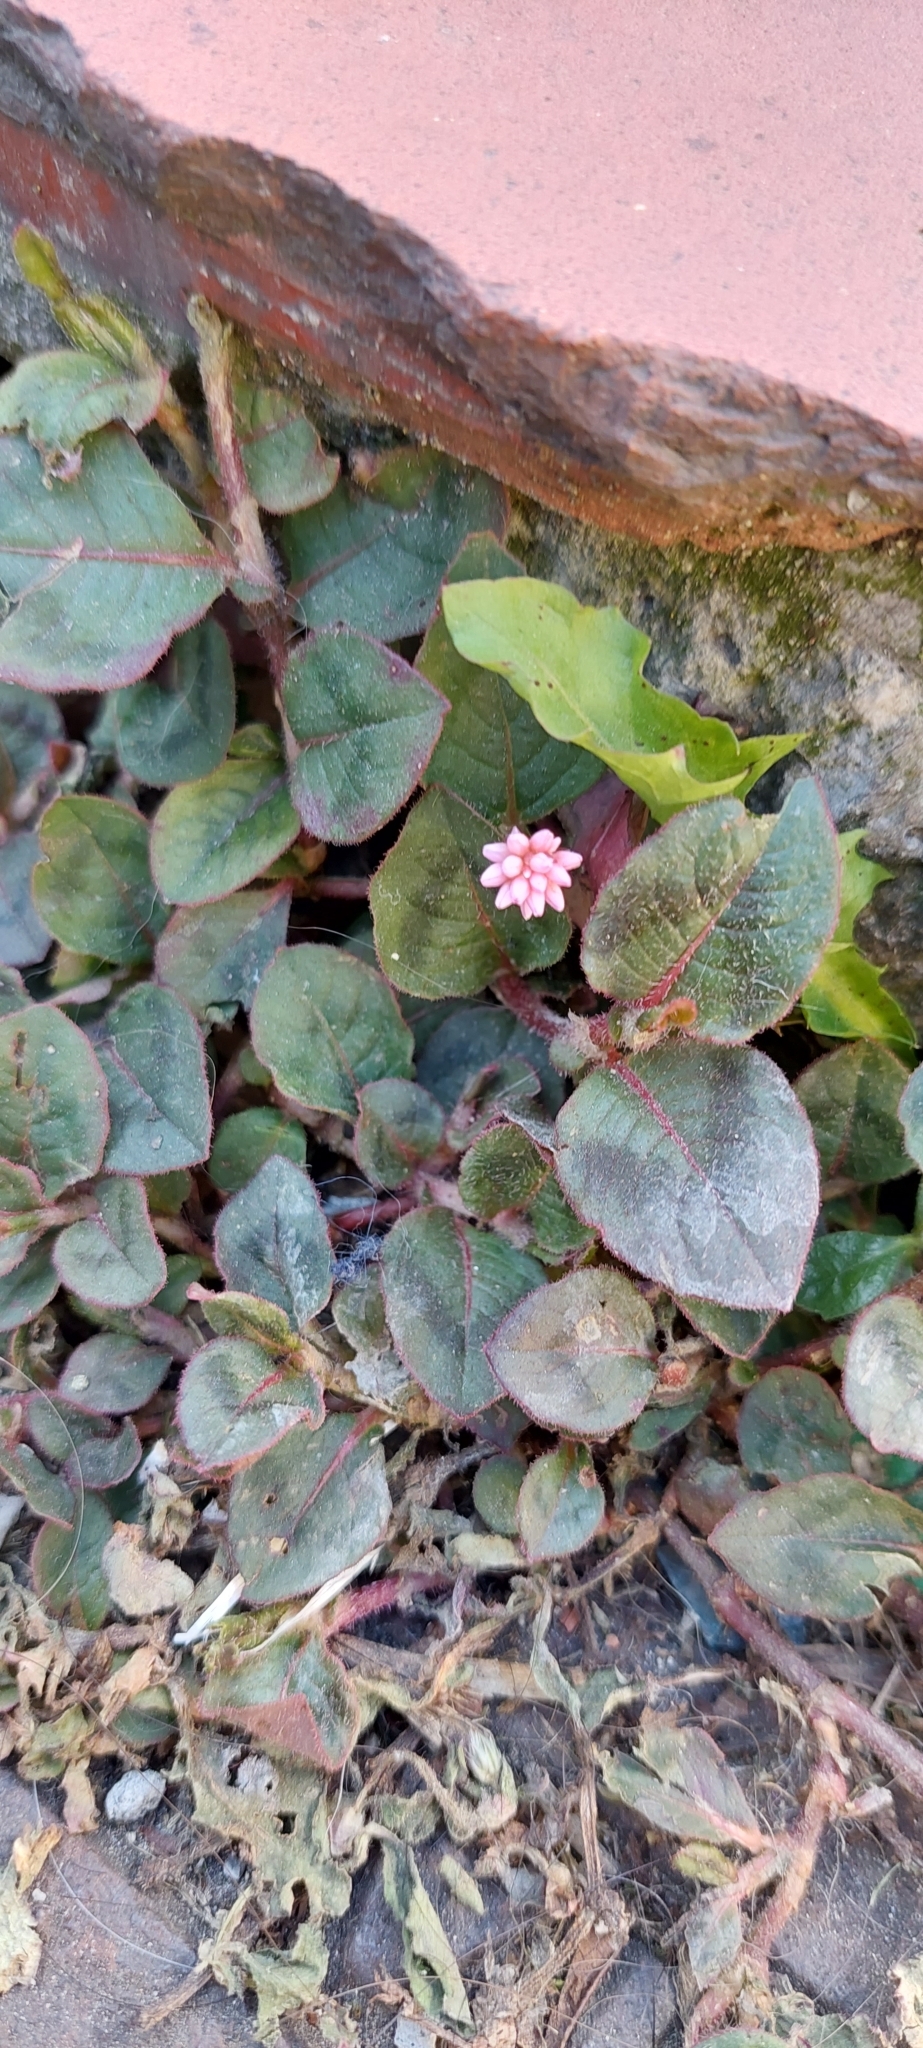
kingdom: Plantae
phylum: Tracheophyta
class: Magnoliopsida
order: Caryophyllales
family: Polygonaceae
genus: Persicaria
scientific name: Persicaria capitata
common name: Pinkhead smartweed
